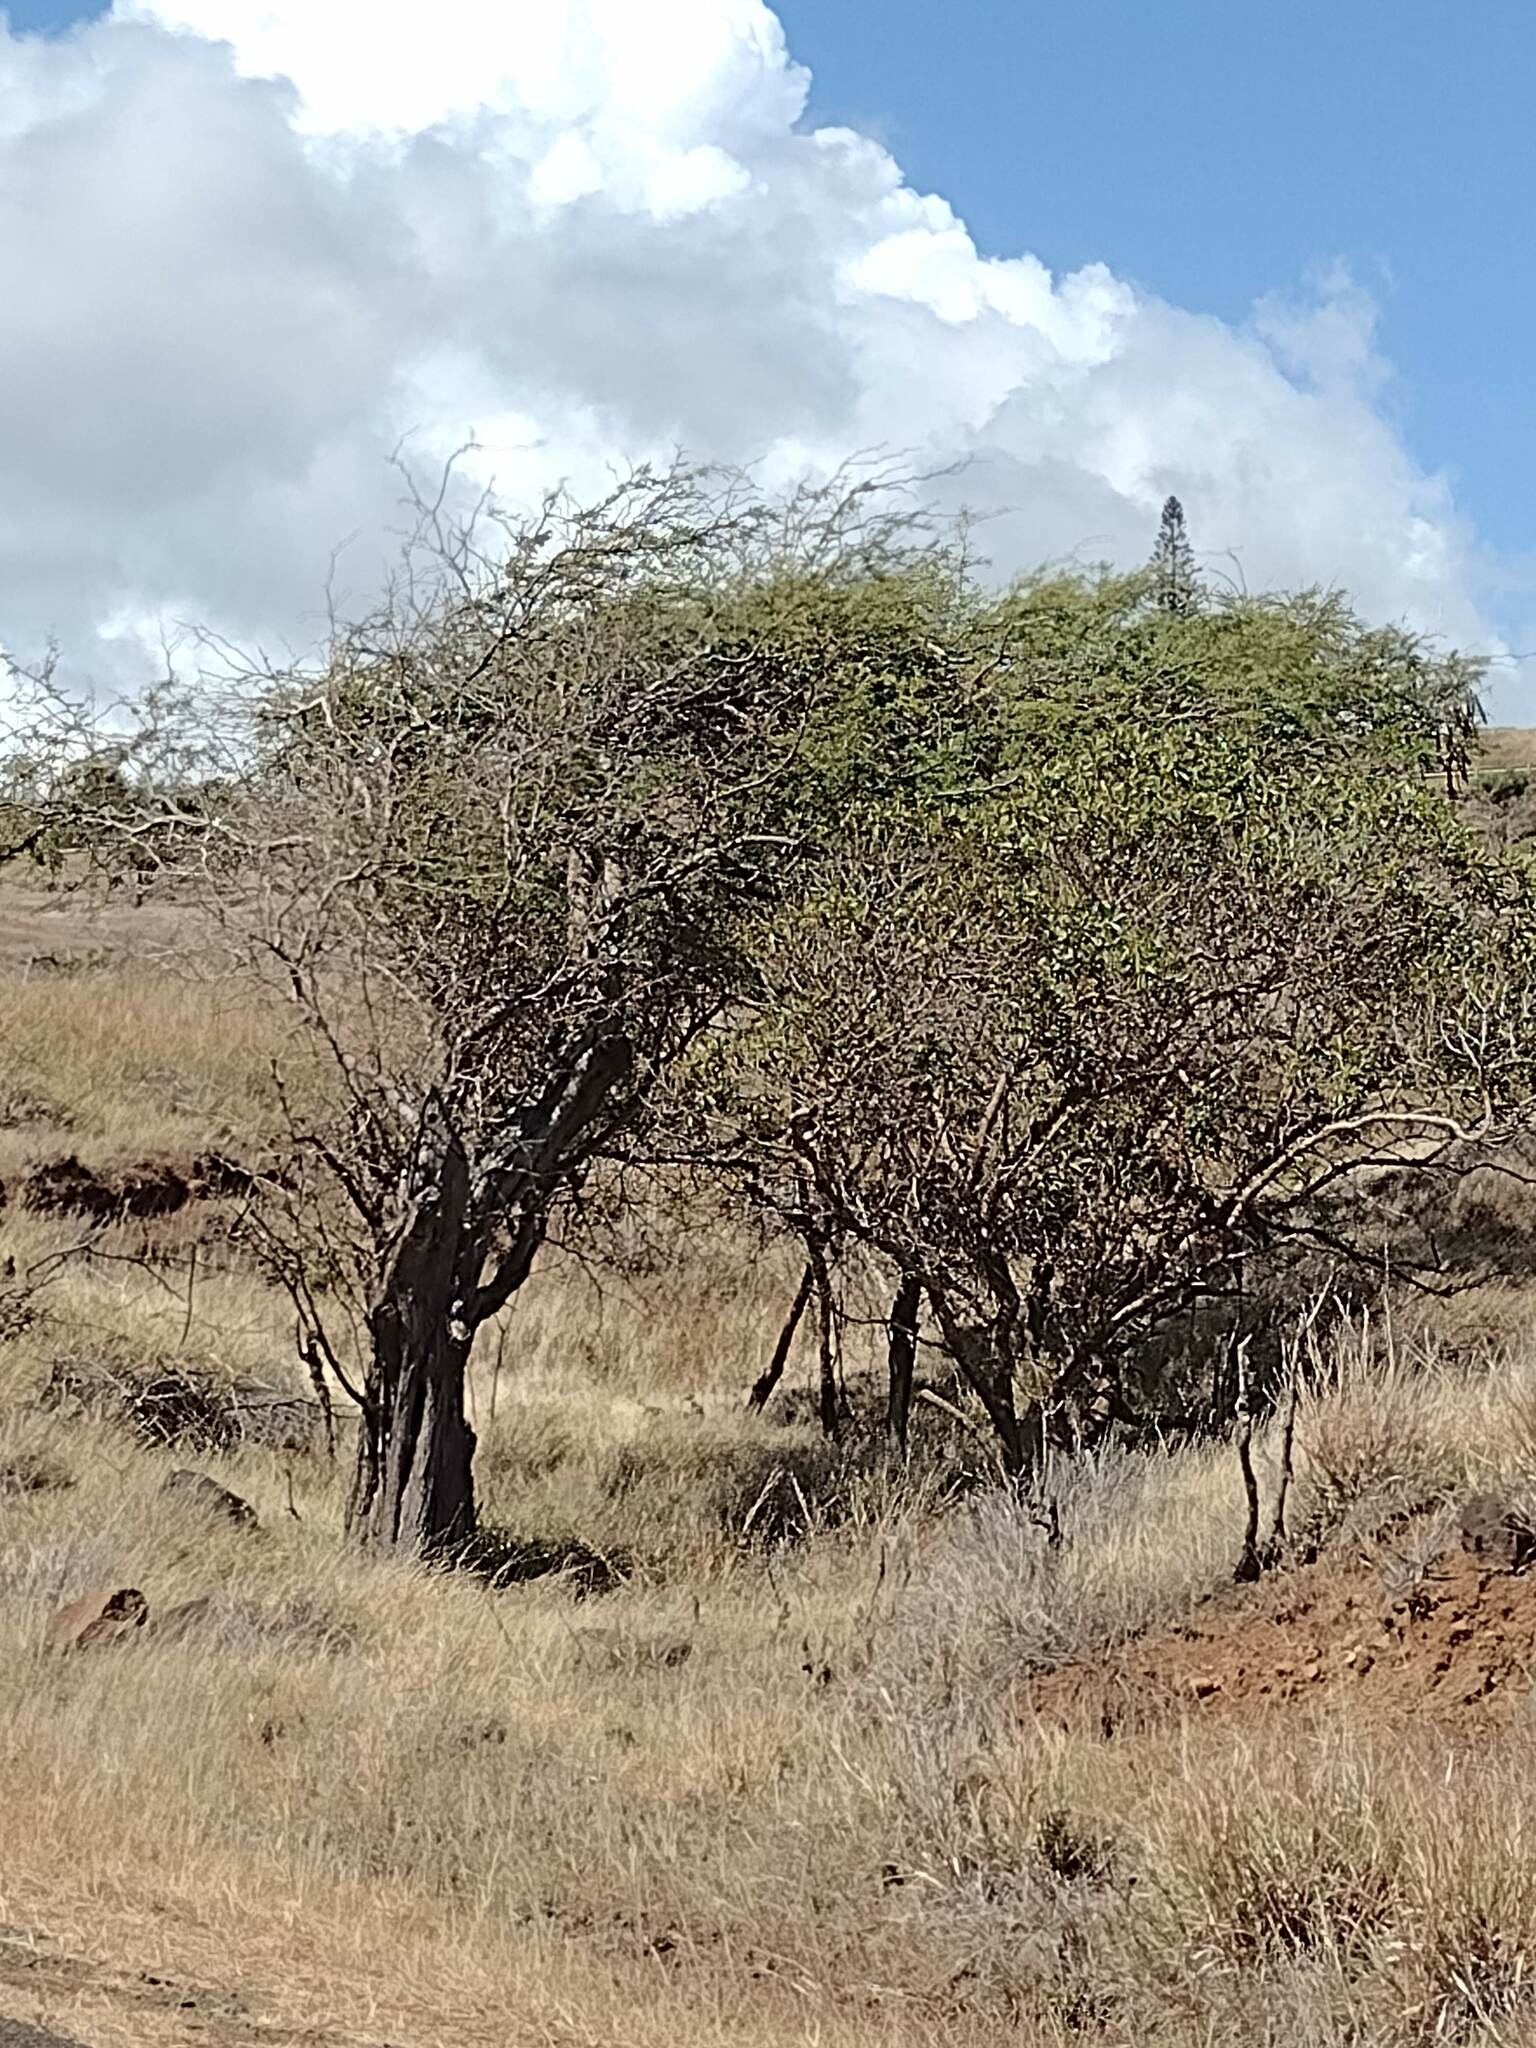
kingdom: Plantae
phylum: Tracheophyta
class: Magnoliopsida
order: Fabales
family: Fabaceae
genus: Prosopis
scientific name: Prosopis pallida
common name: Mesquite
